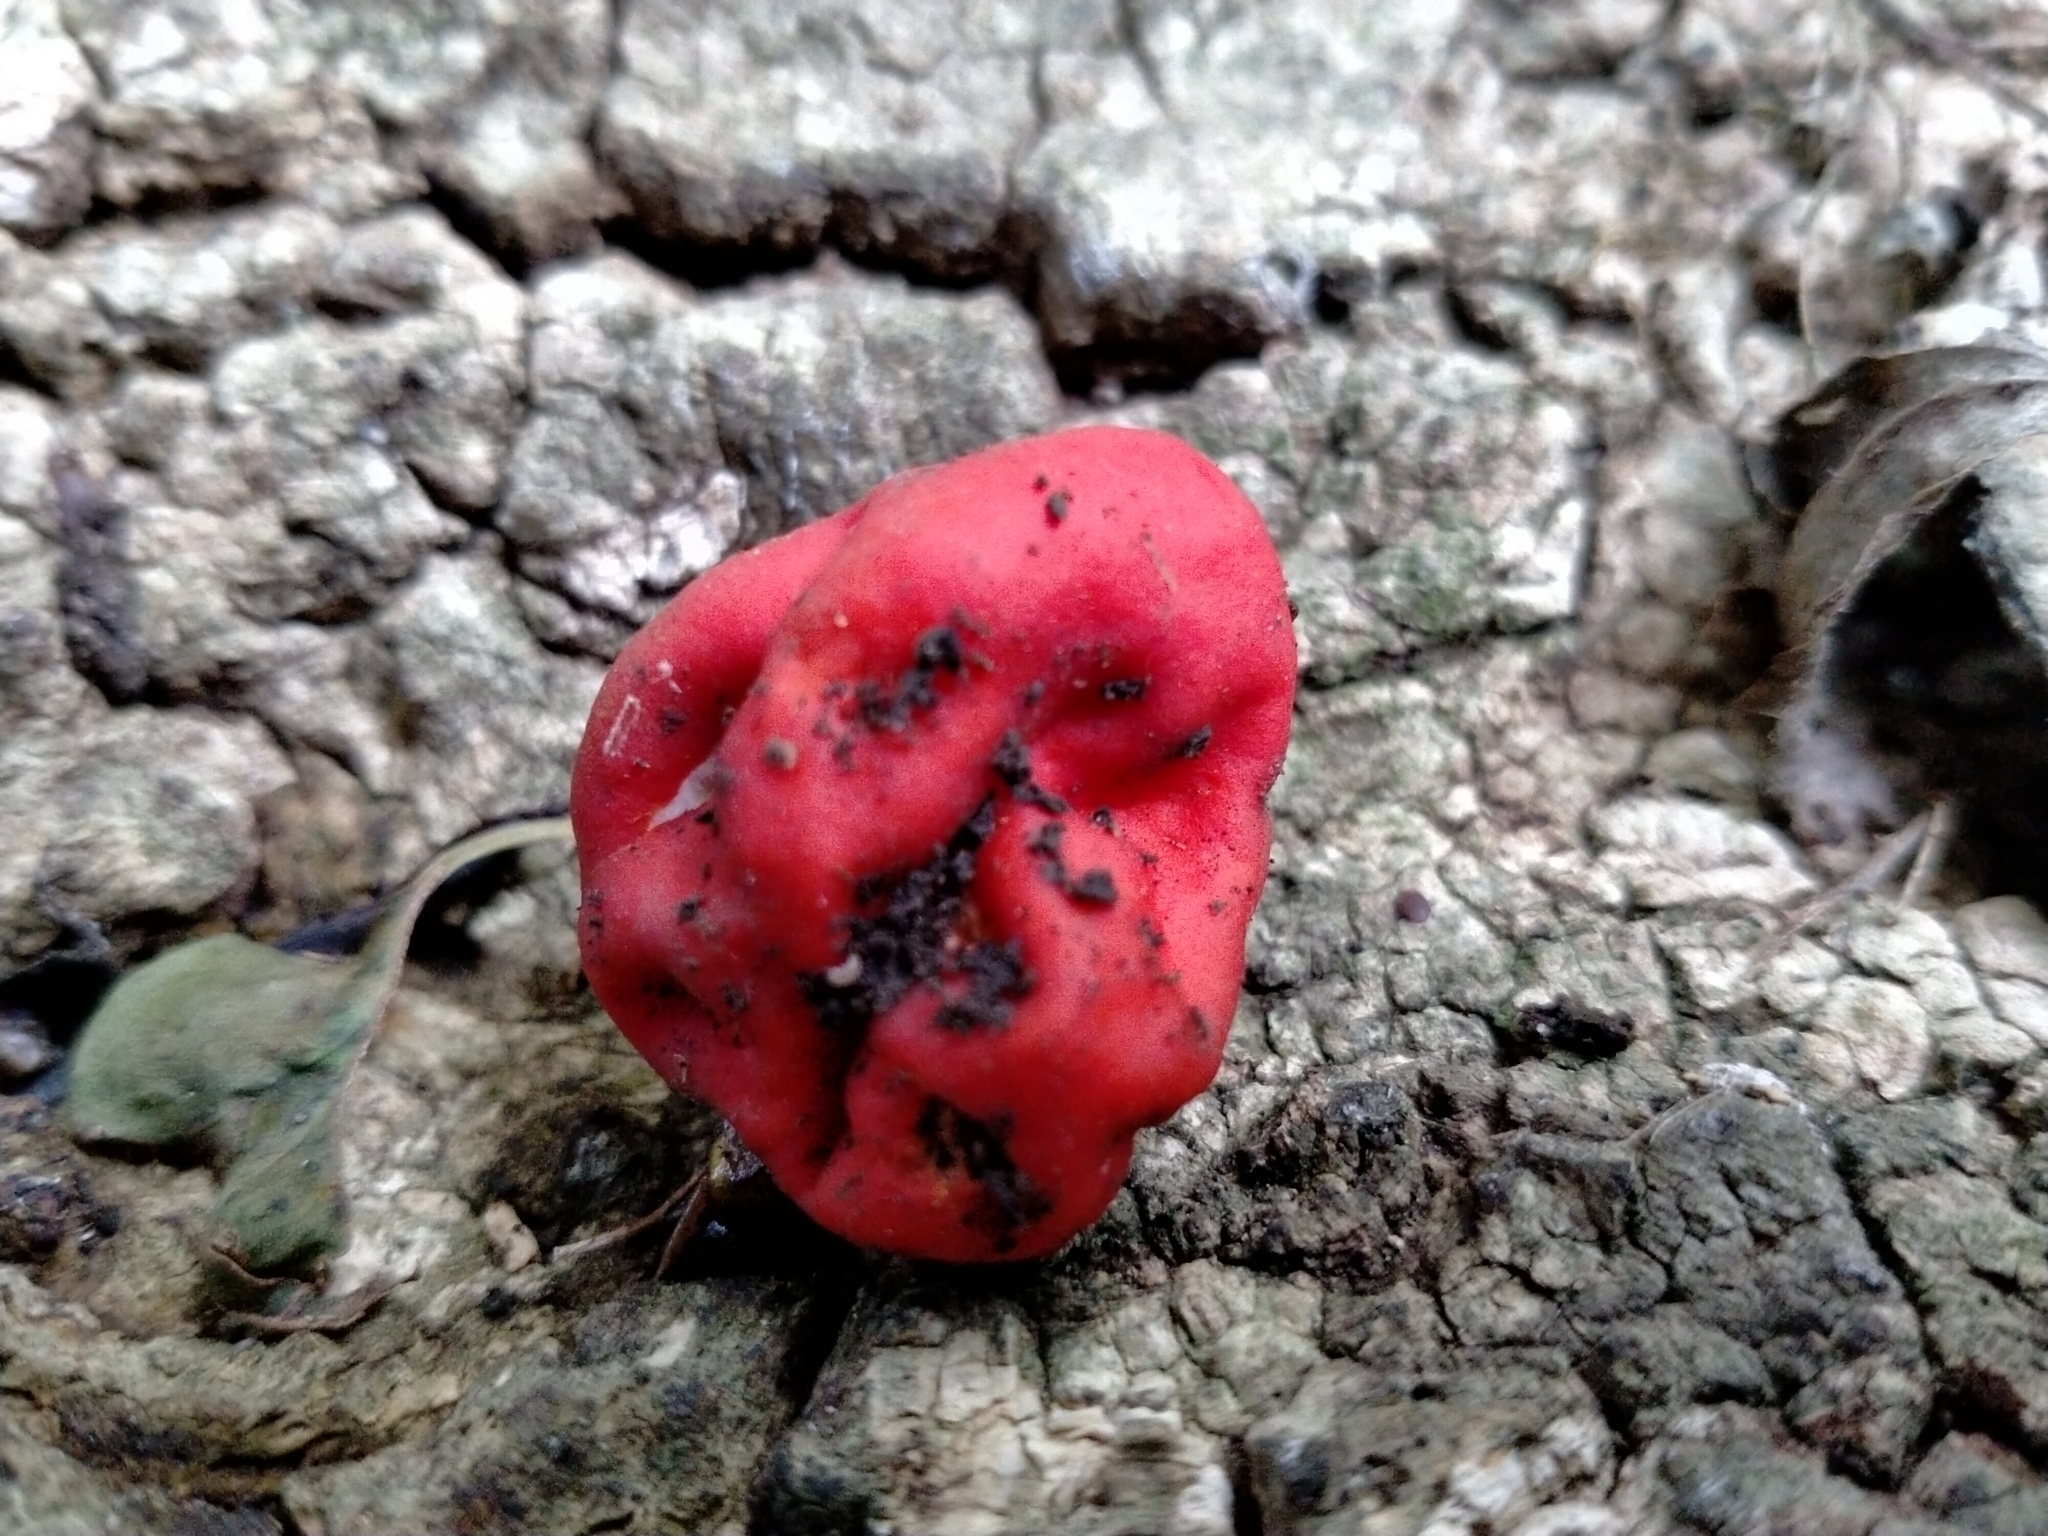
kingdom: Fungi
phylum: Ascomycota
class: Pezizomycetes
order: Pezizales
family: Pyronemataceae
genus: Paurocotylis
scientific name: Paurocotylis pila
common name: Scarlet berry truffle
